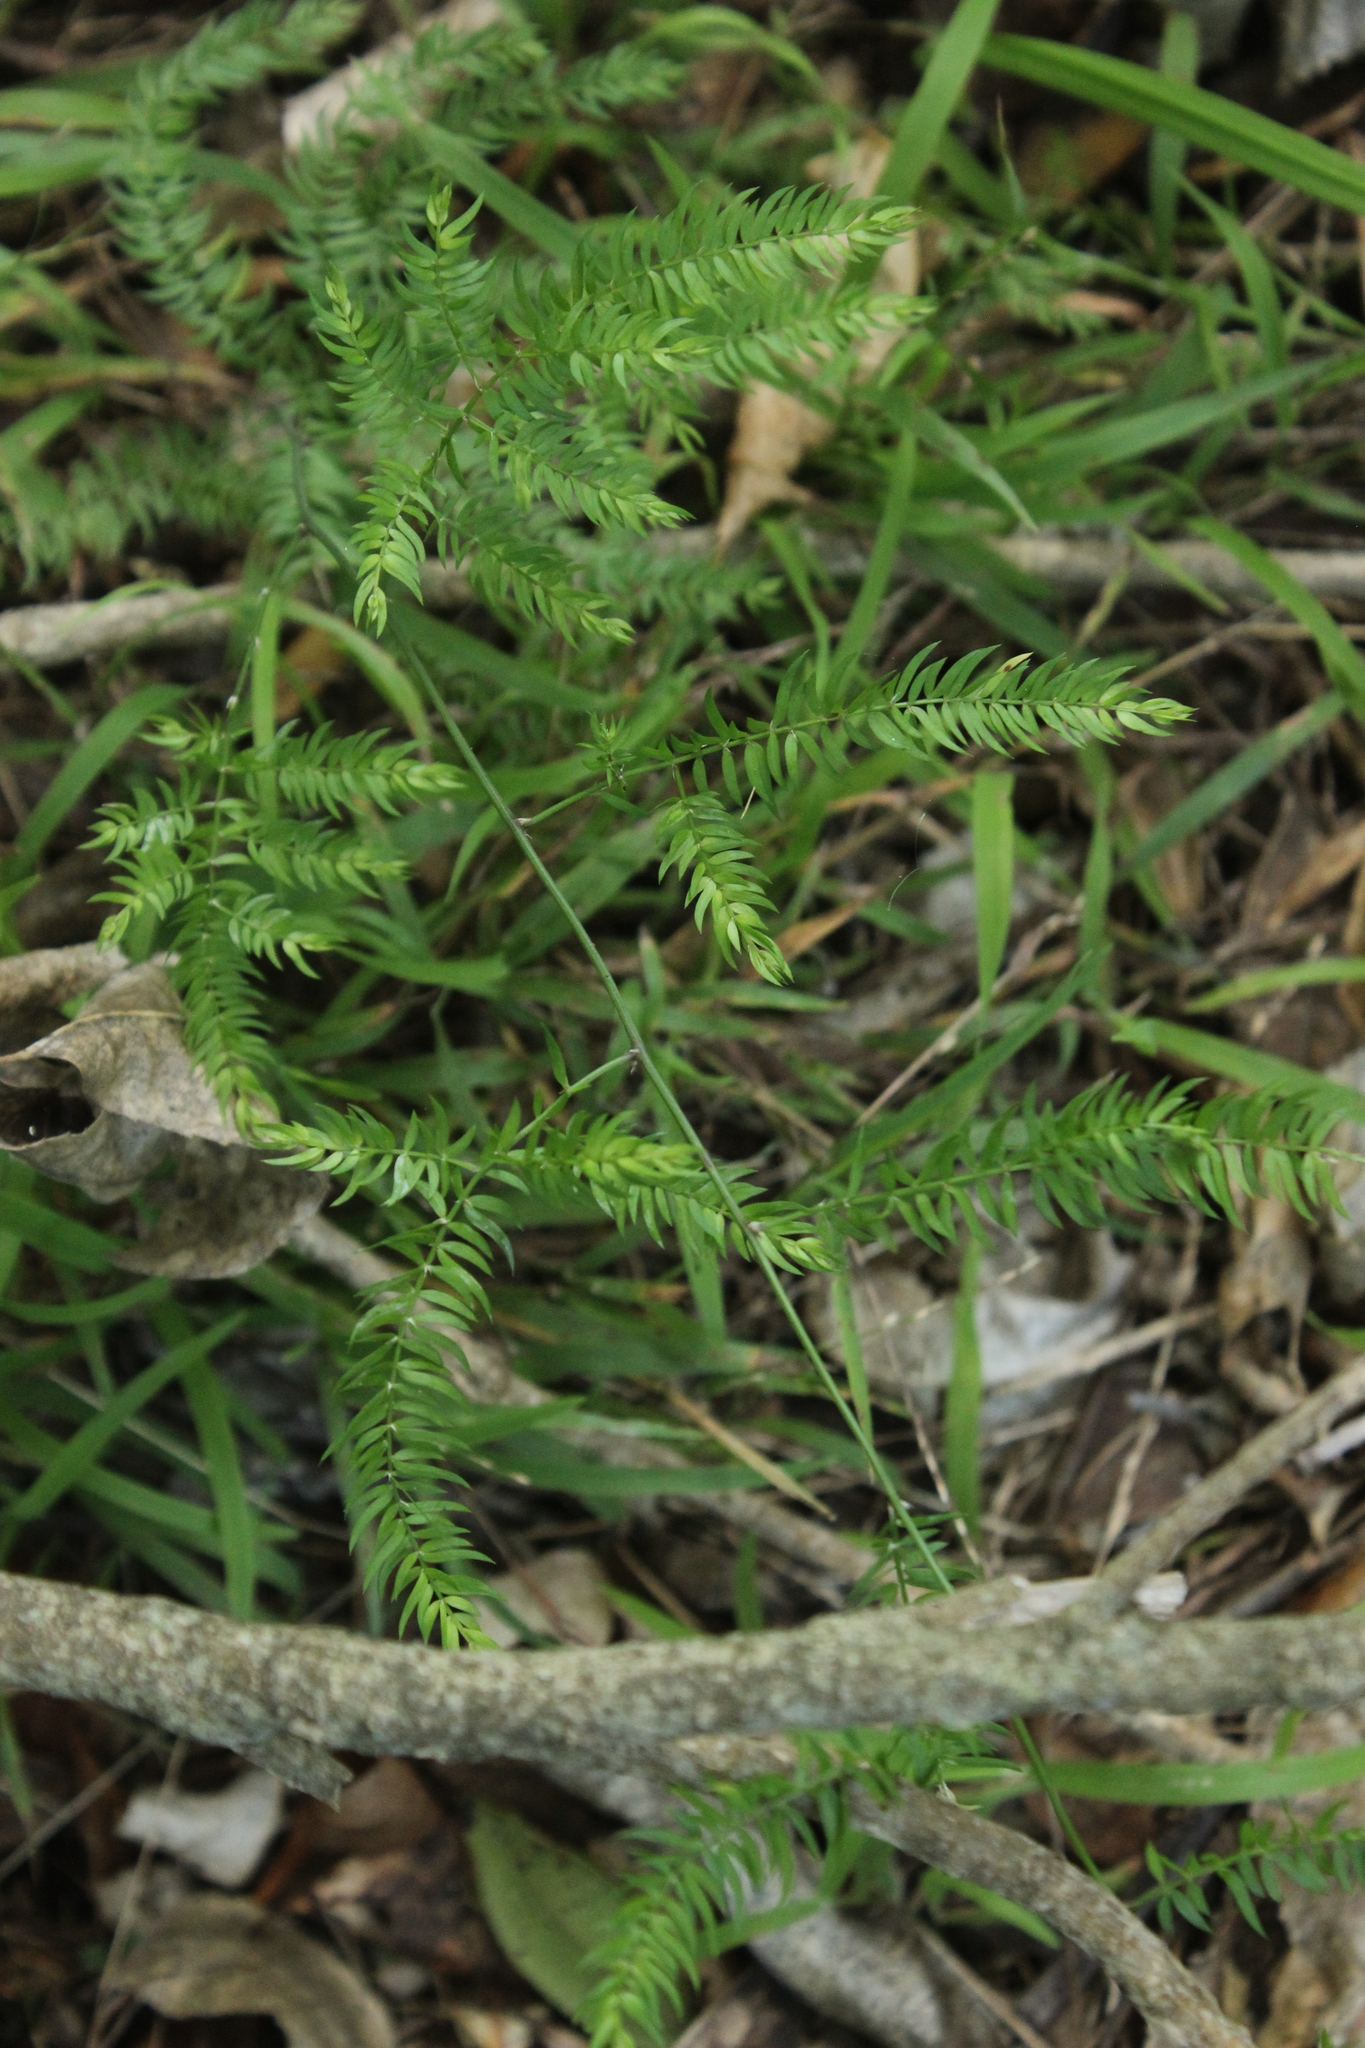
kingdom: Plantae
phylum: Tracheophyta
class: Liliopsida
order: Asparagales
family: Asparagaceae
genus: Asparagus
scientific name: Asparagus scandens
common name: Asparagus-fern
